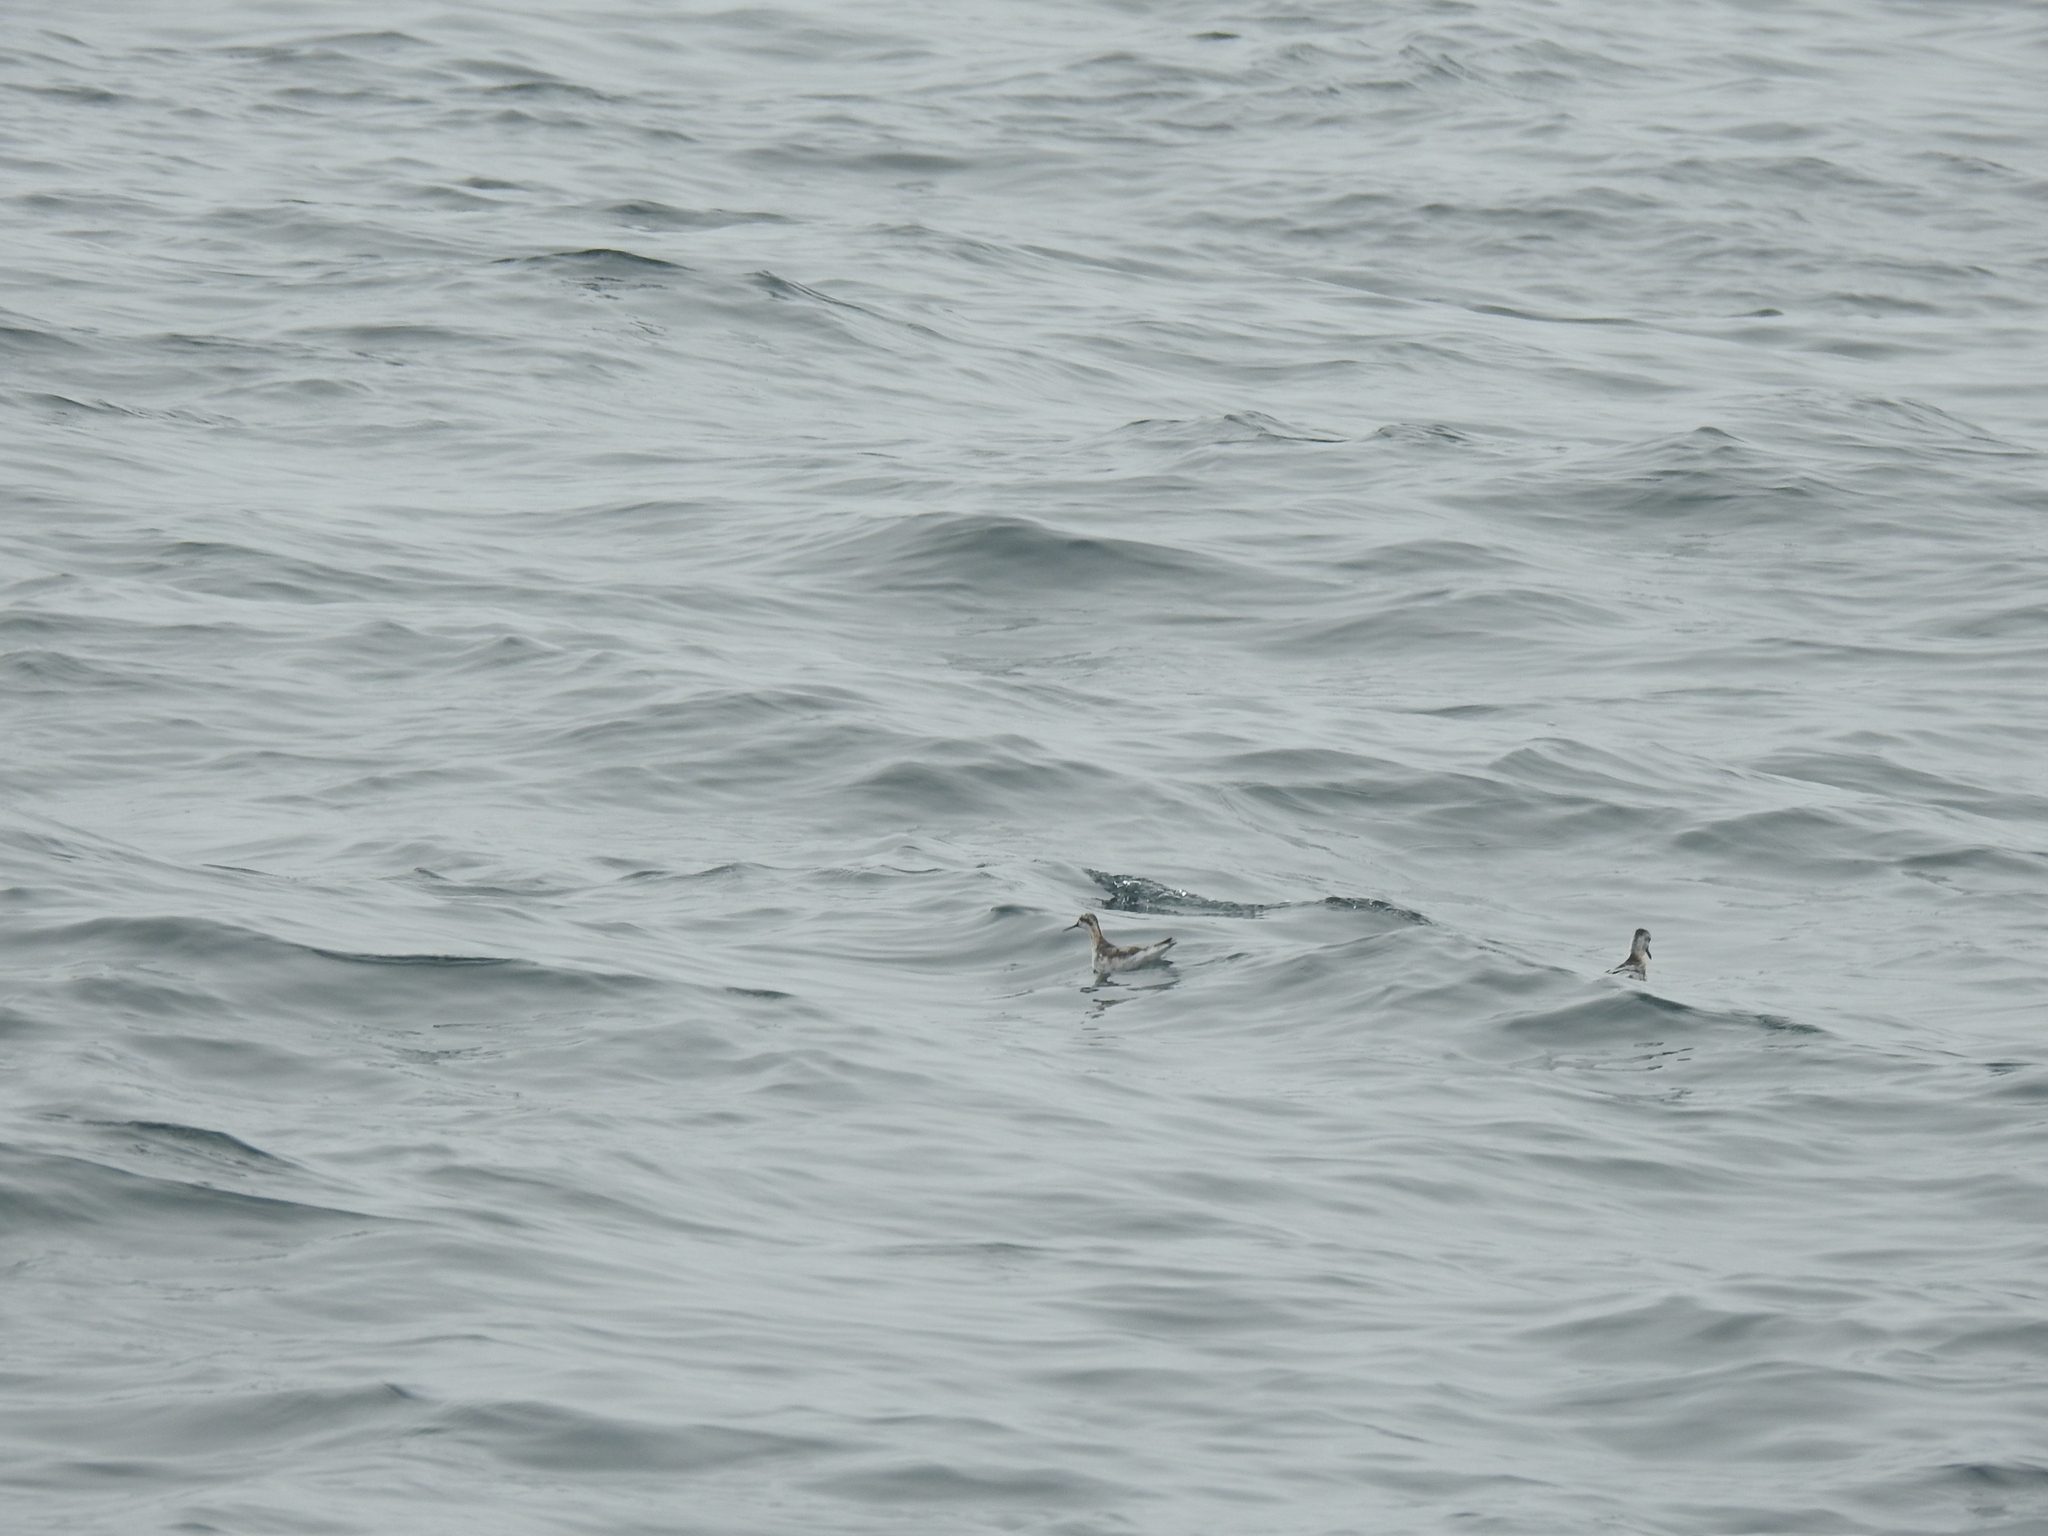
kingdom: Animalia
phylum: Chordata
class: Aves
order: Charadriiformes
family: Scolopacidae
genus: Phalaropus
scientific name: Phalaropus lobatus
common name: Red-necked phalarope
